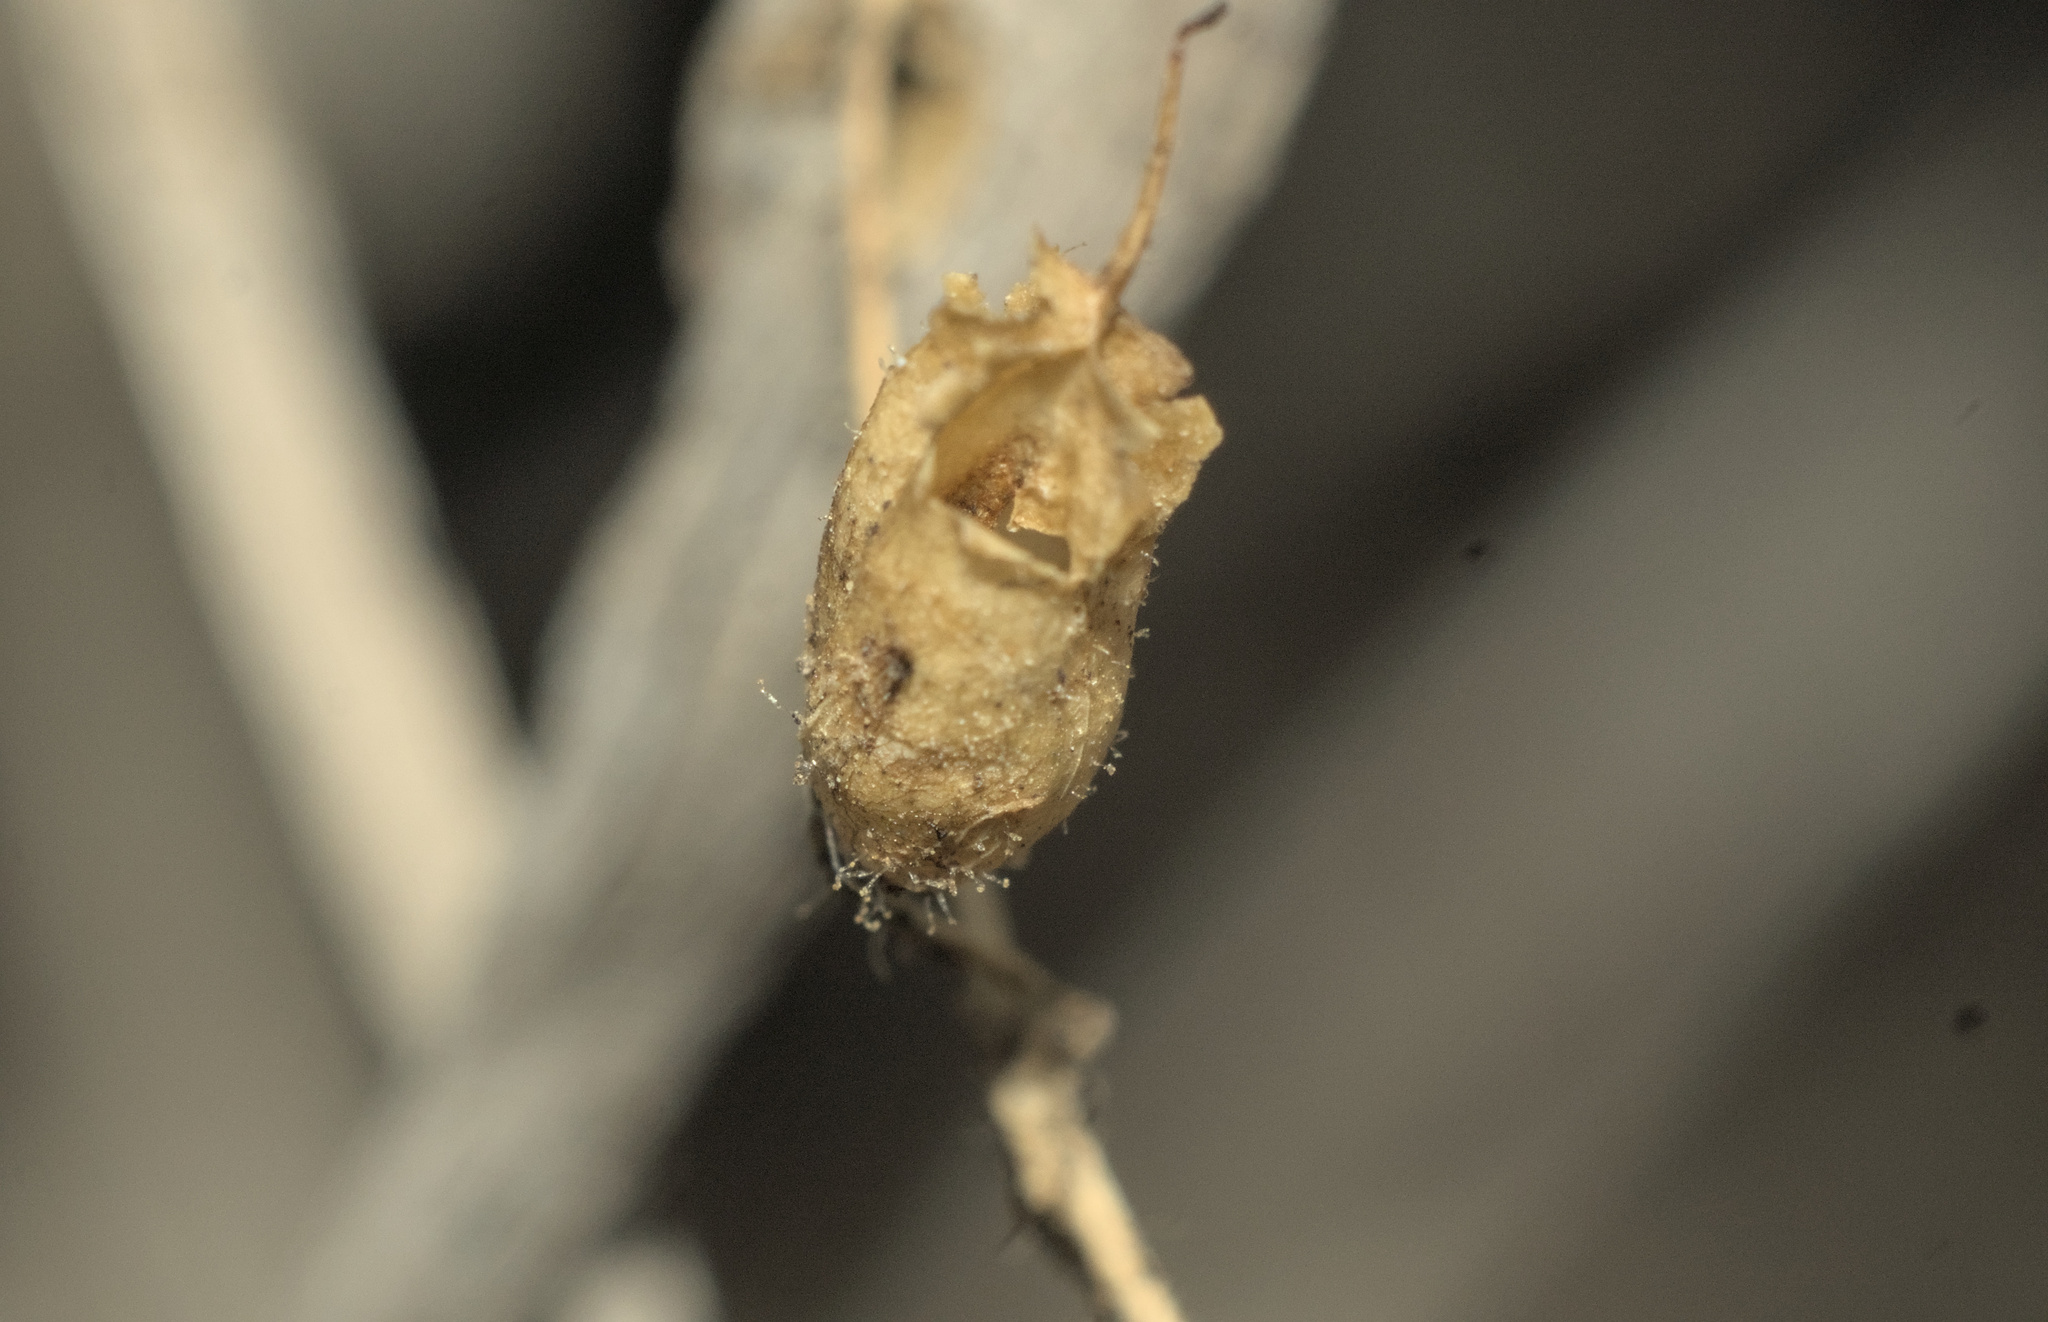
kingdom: Plantae
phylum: Tracheophyta
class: Magnoliopsida
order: Lamiales
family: Plantaginaceae
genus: Sairocarpus
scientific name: Sairocarpus nuttallianus
